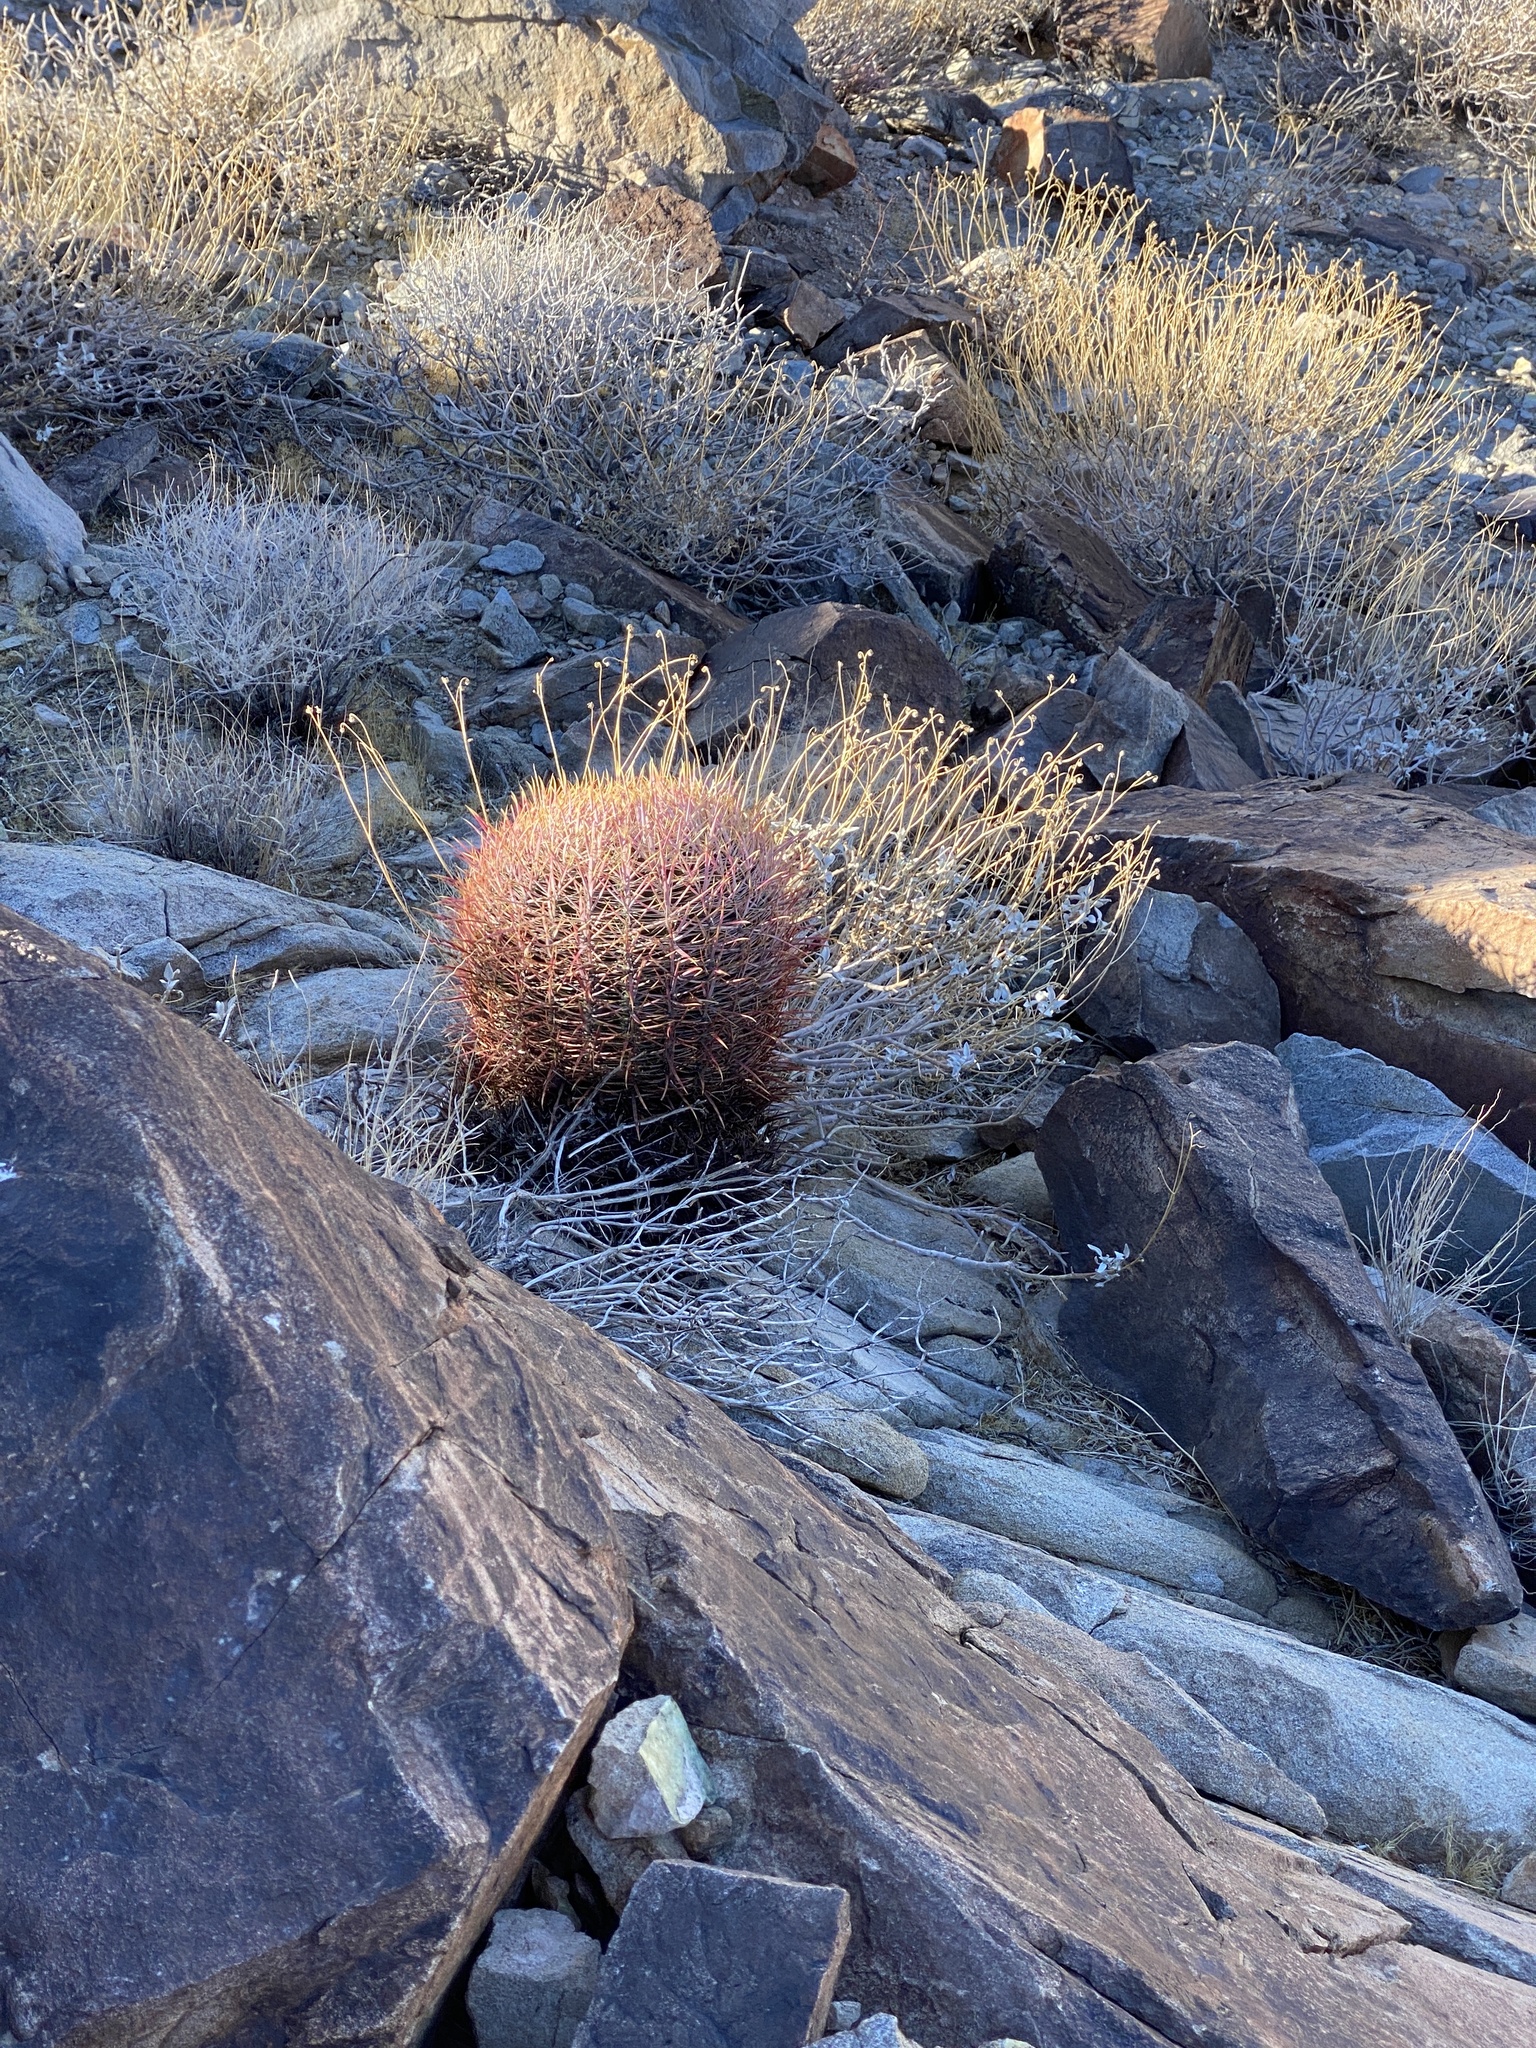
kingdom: Plantae
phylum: Tracheophyta
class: Magnoliopsida
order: Caryophyllales
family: Cactaceae
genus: Ferocactus
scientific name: Ferocactus cylindraceus
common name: California barrel cactus
